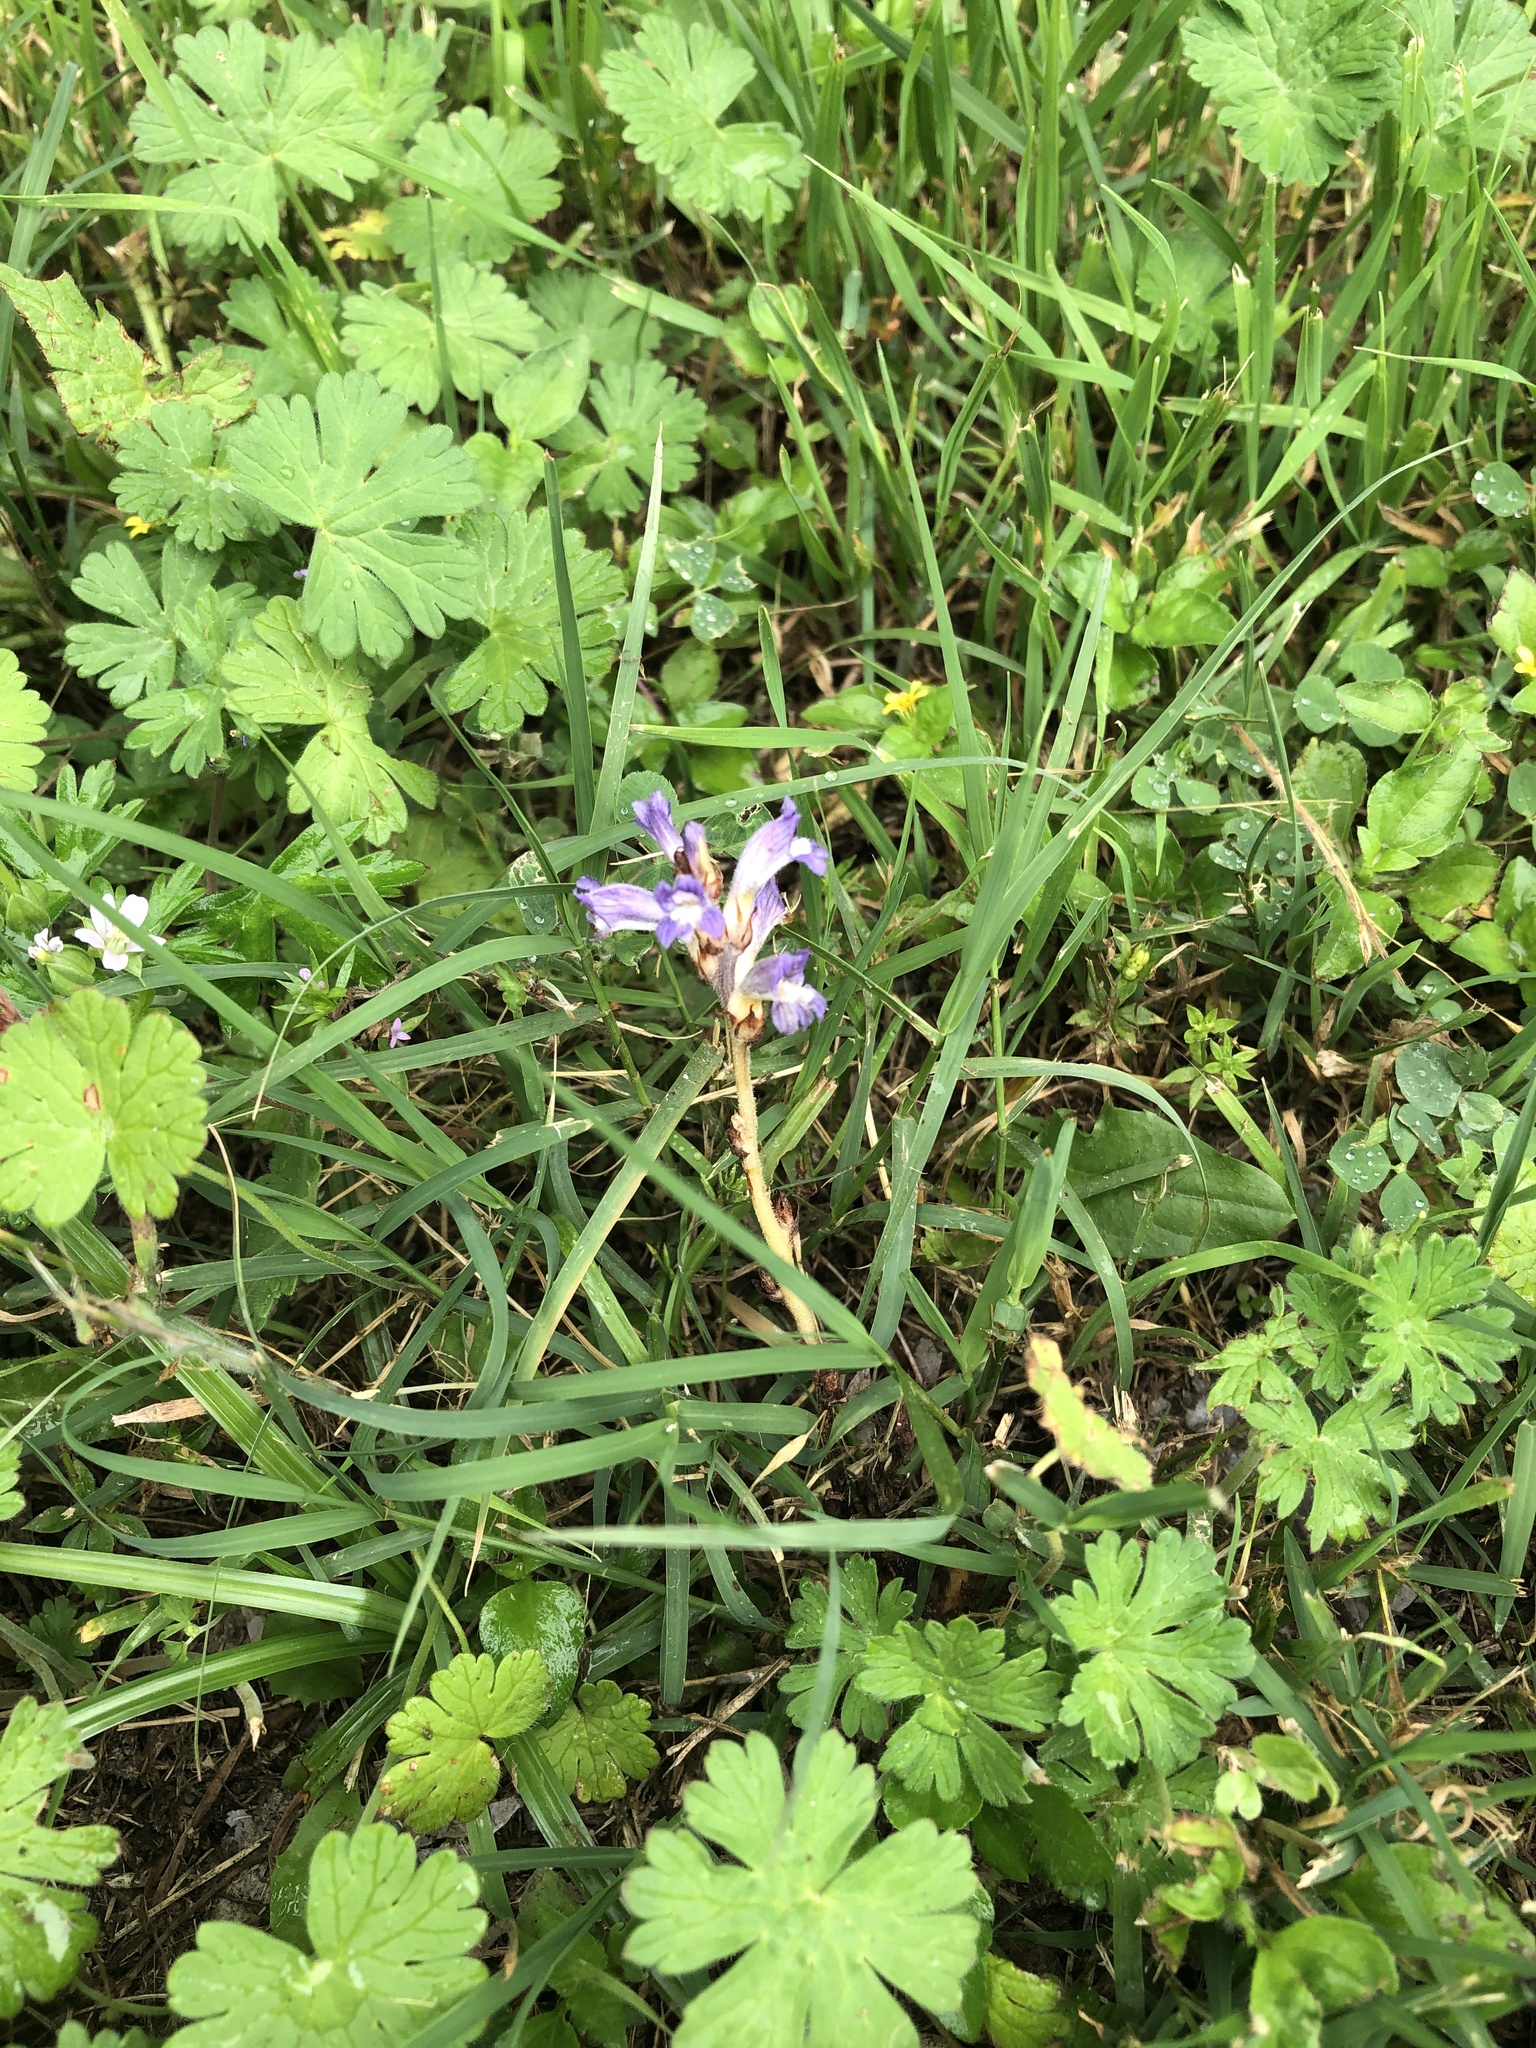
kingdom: Plantae
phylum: Tracheophyta
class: Magnoliopsida
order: Lamiales
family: Orobanchaceae
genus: Phelipanche
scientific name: Phelipanche mutelii
